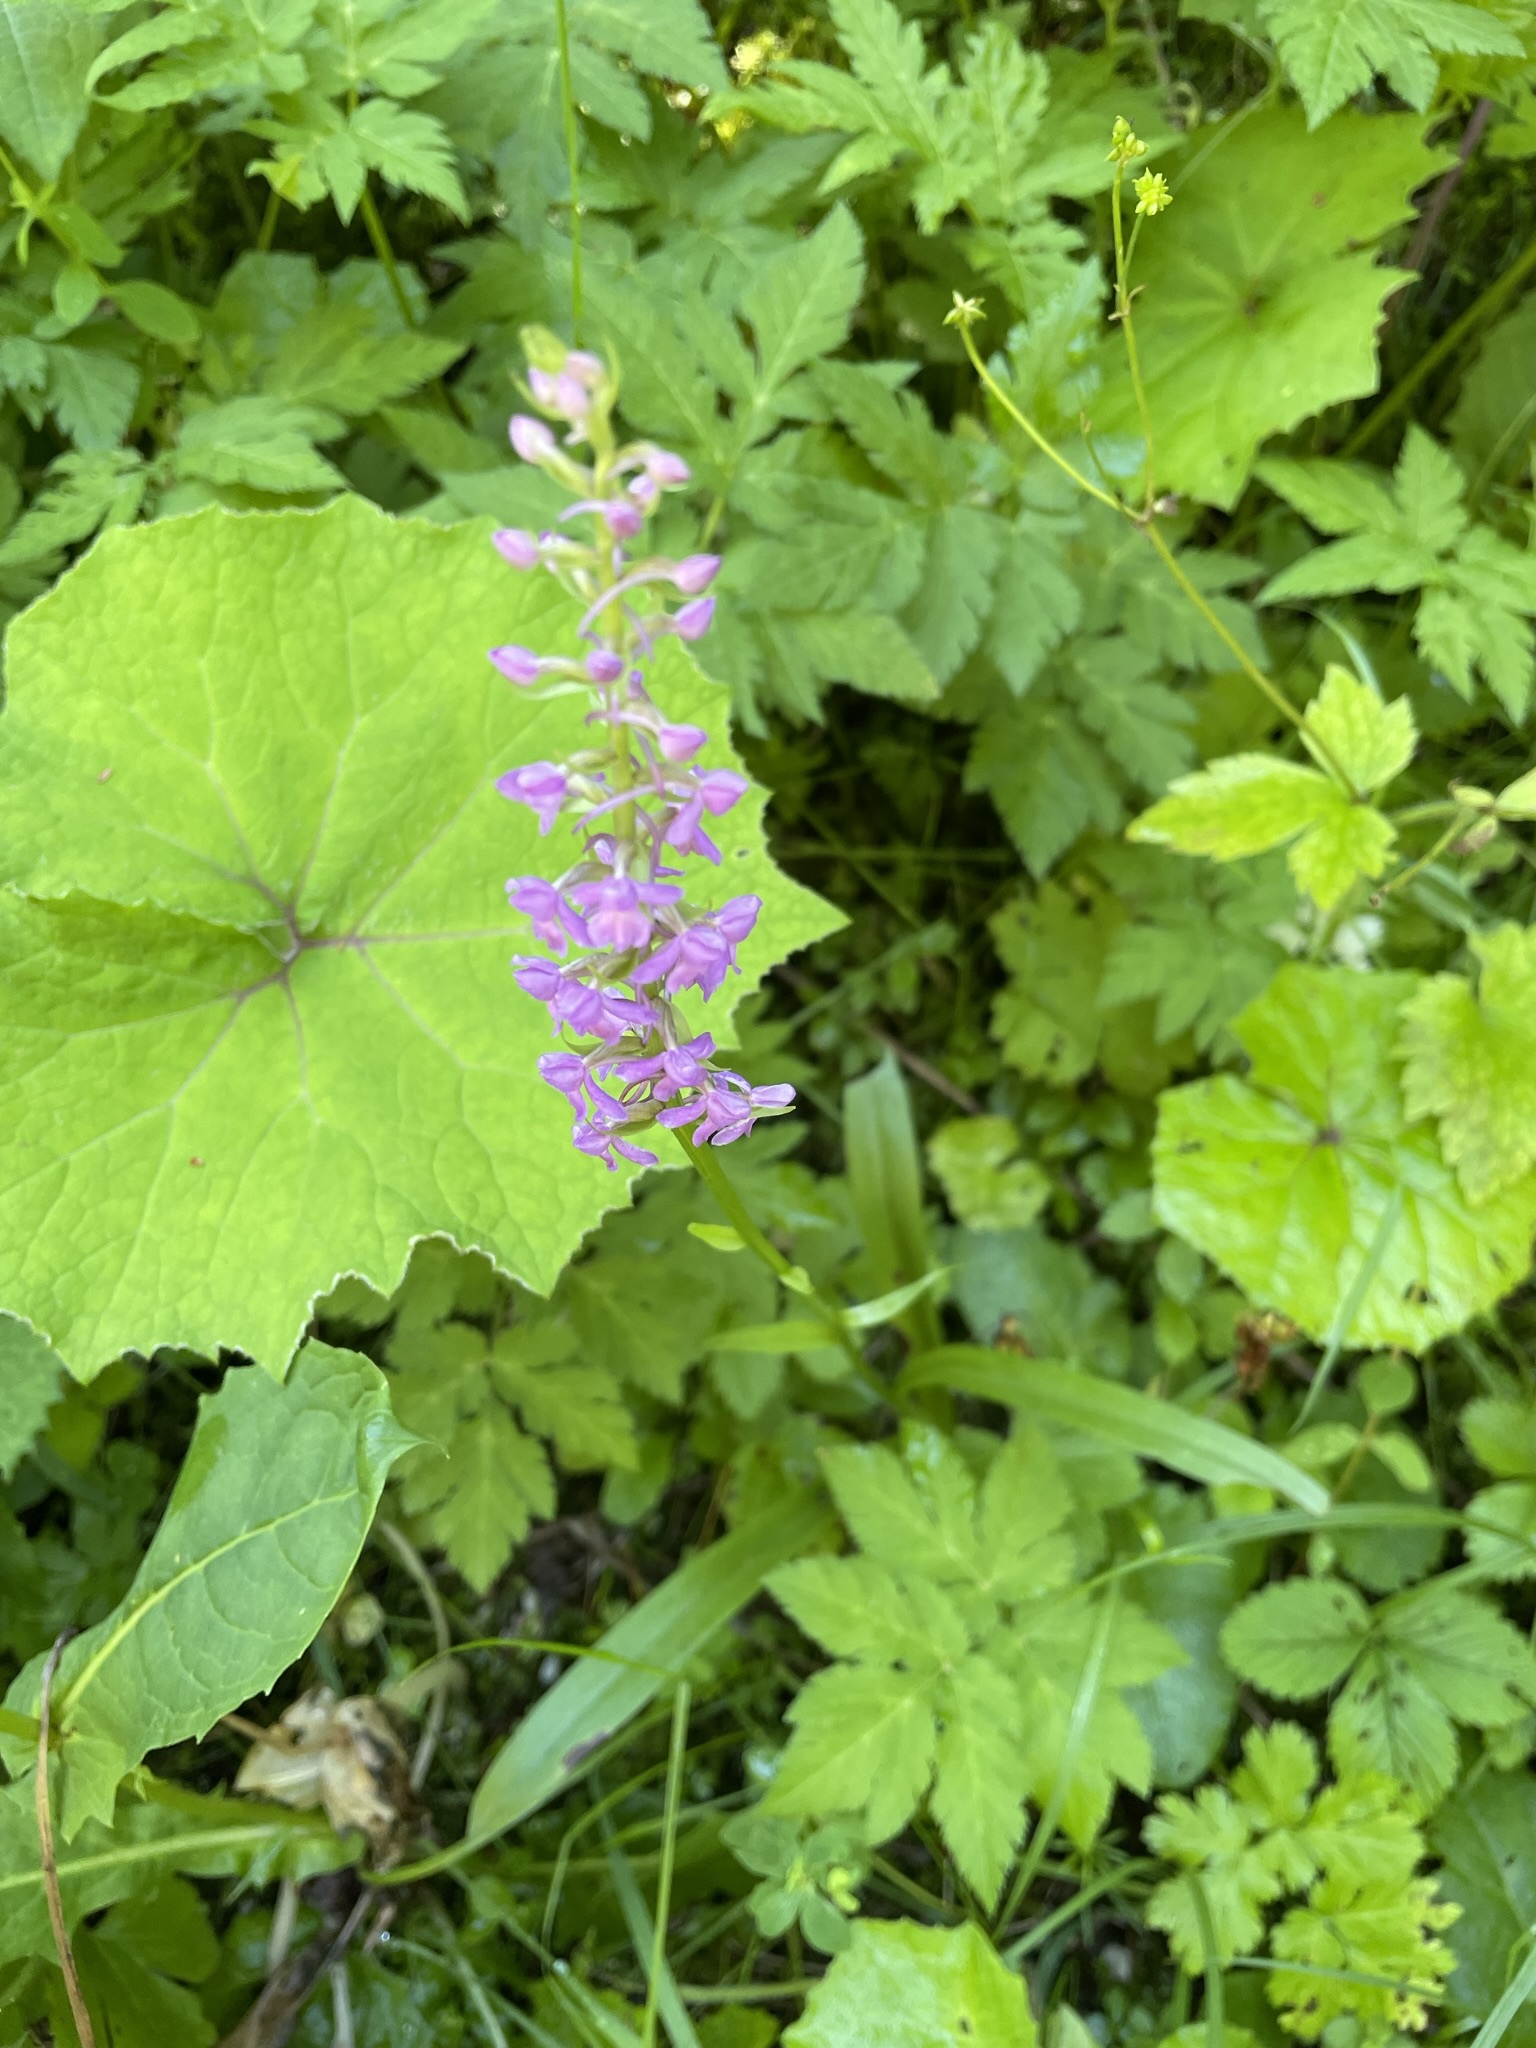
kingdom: Plantae
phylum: Tracheophyta
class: Liliopsida
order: Asparagales
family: Orchidaceae
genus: Gymnadenia
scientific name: Gymnadenia conopsea
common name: Fragrant orchid
